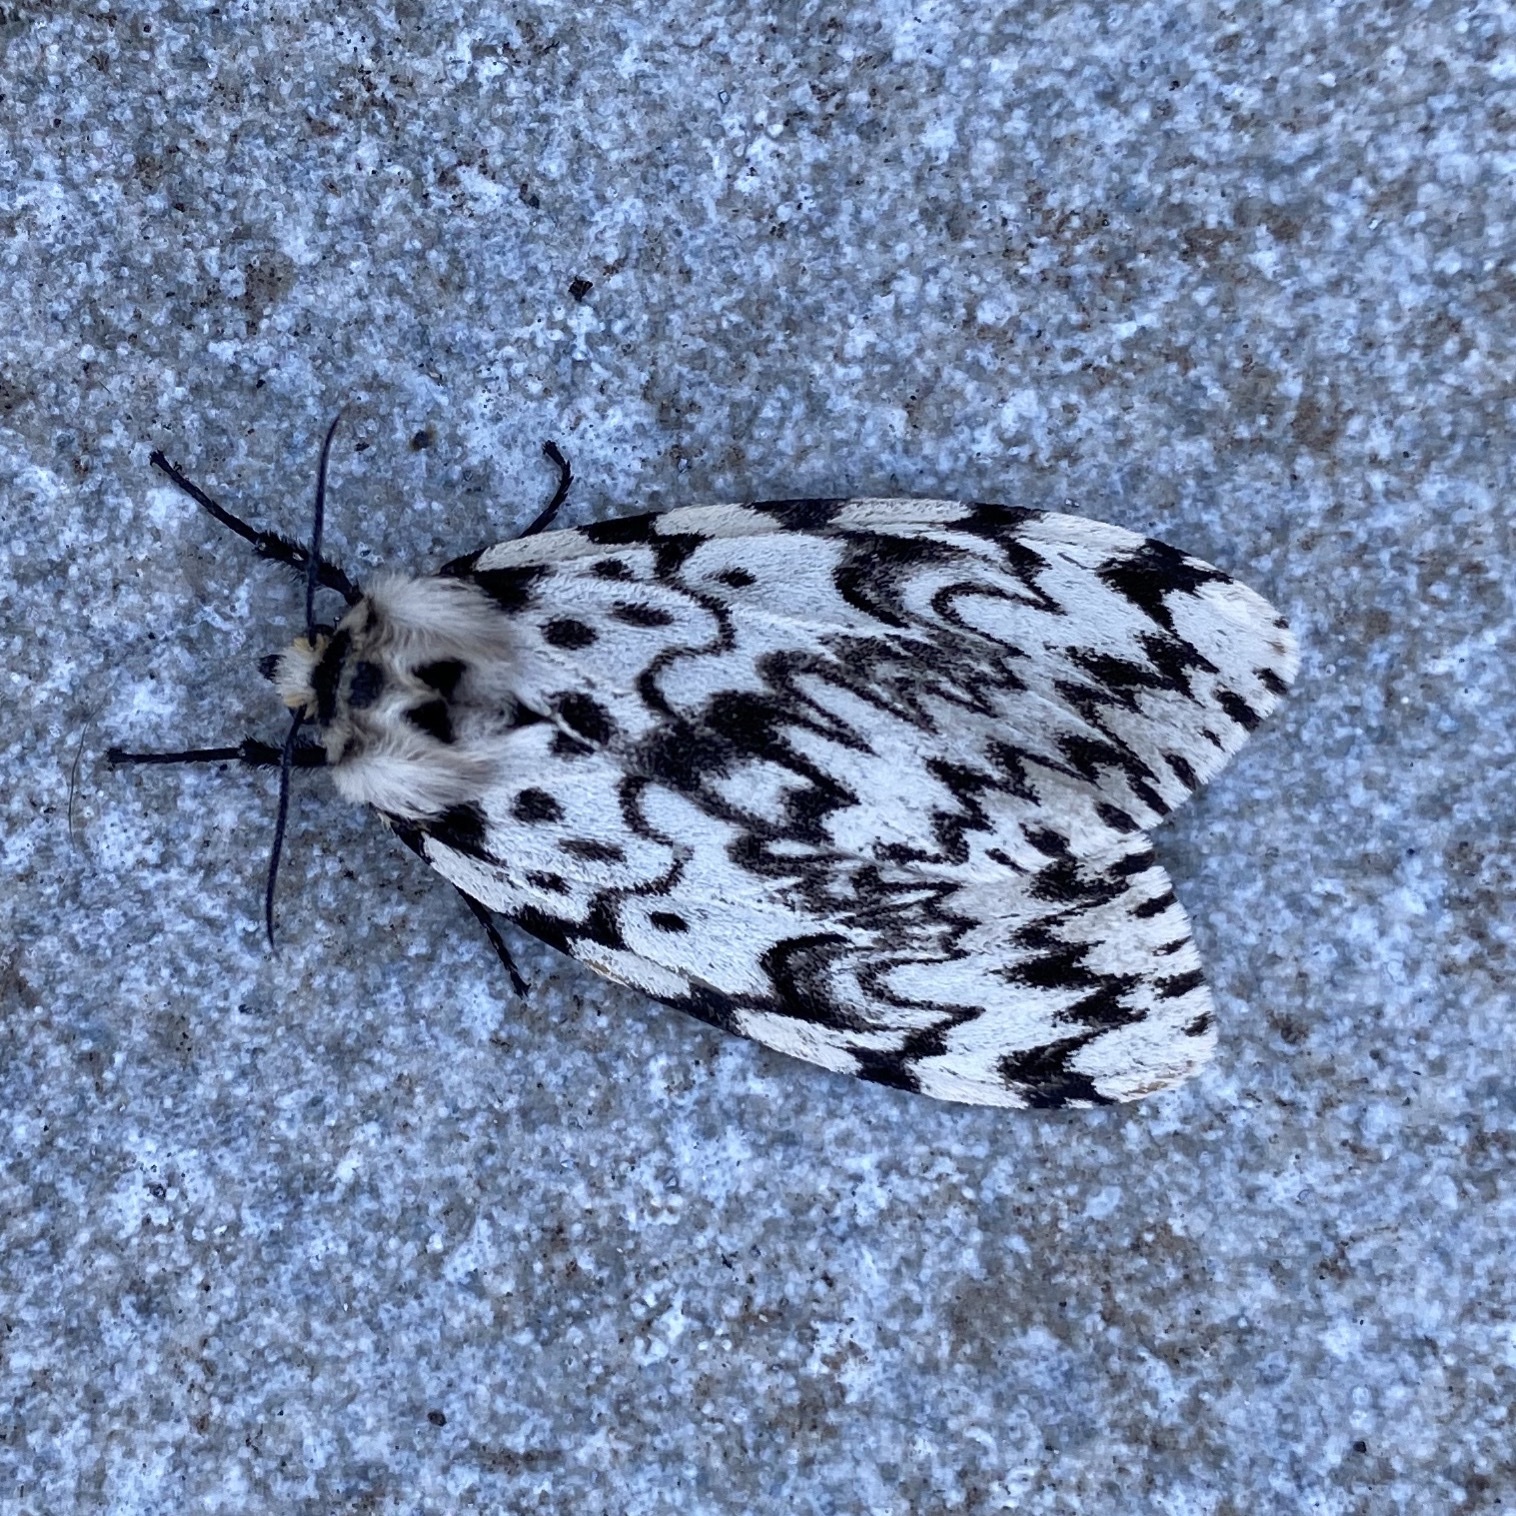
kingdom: Animalia
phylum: Arthropoda
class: Insecta
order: Lepidoptera
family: Erebidae
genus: Lymantria
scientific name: Lymantria monacha
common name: Black arches
